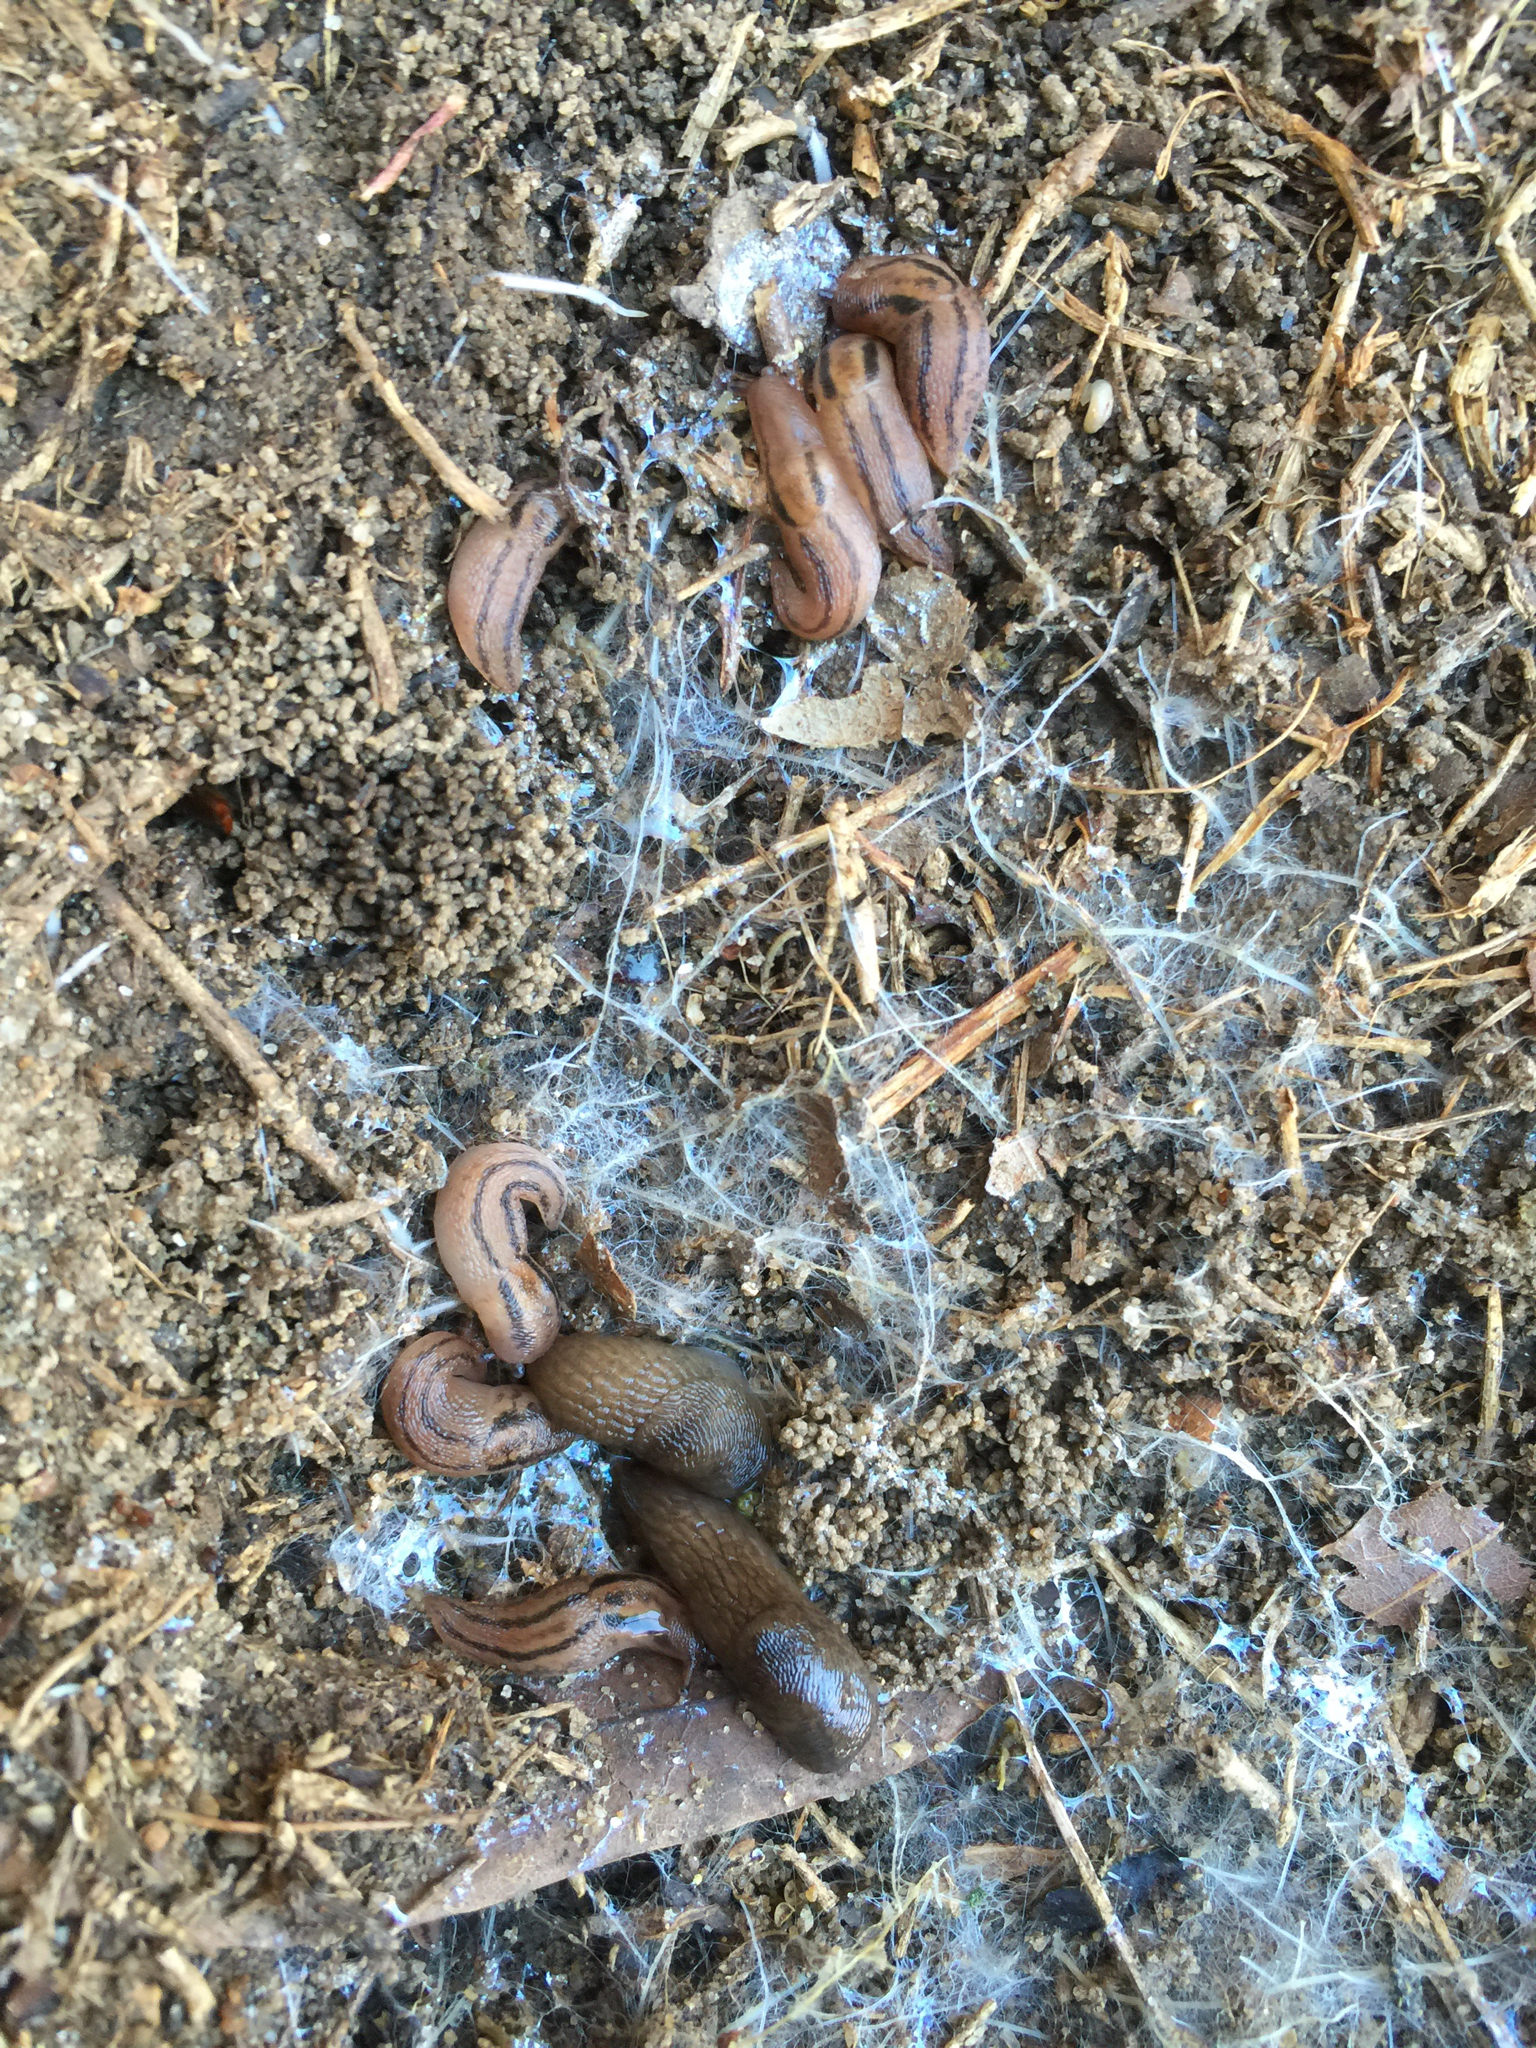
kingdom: Animalia
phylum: Mollusca
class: Gastropoda
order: Stylommatophora
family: Limacidae
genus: Ambigolimax
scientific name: Ambigolimax
